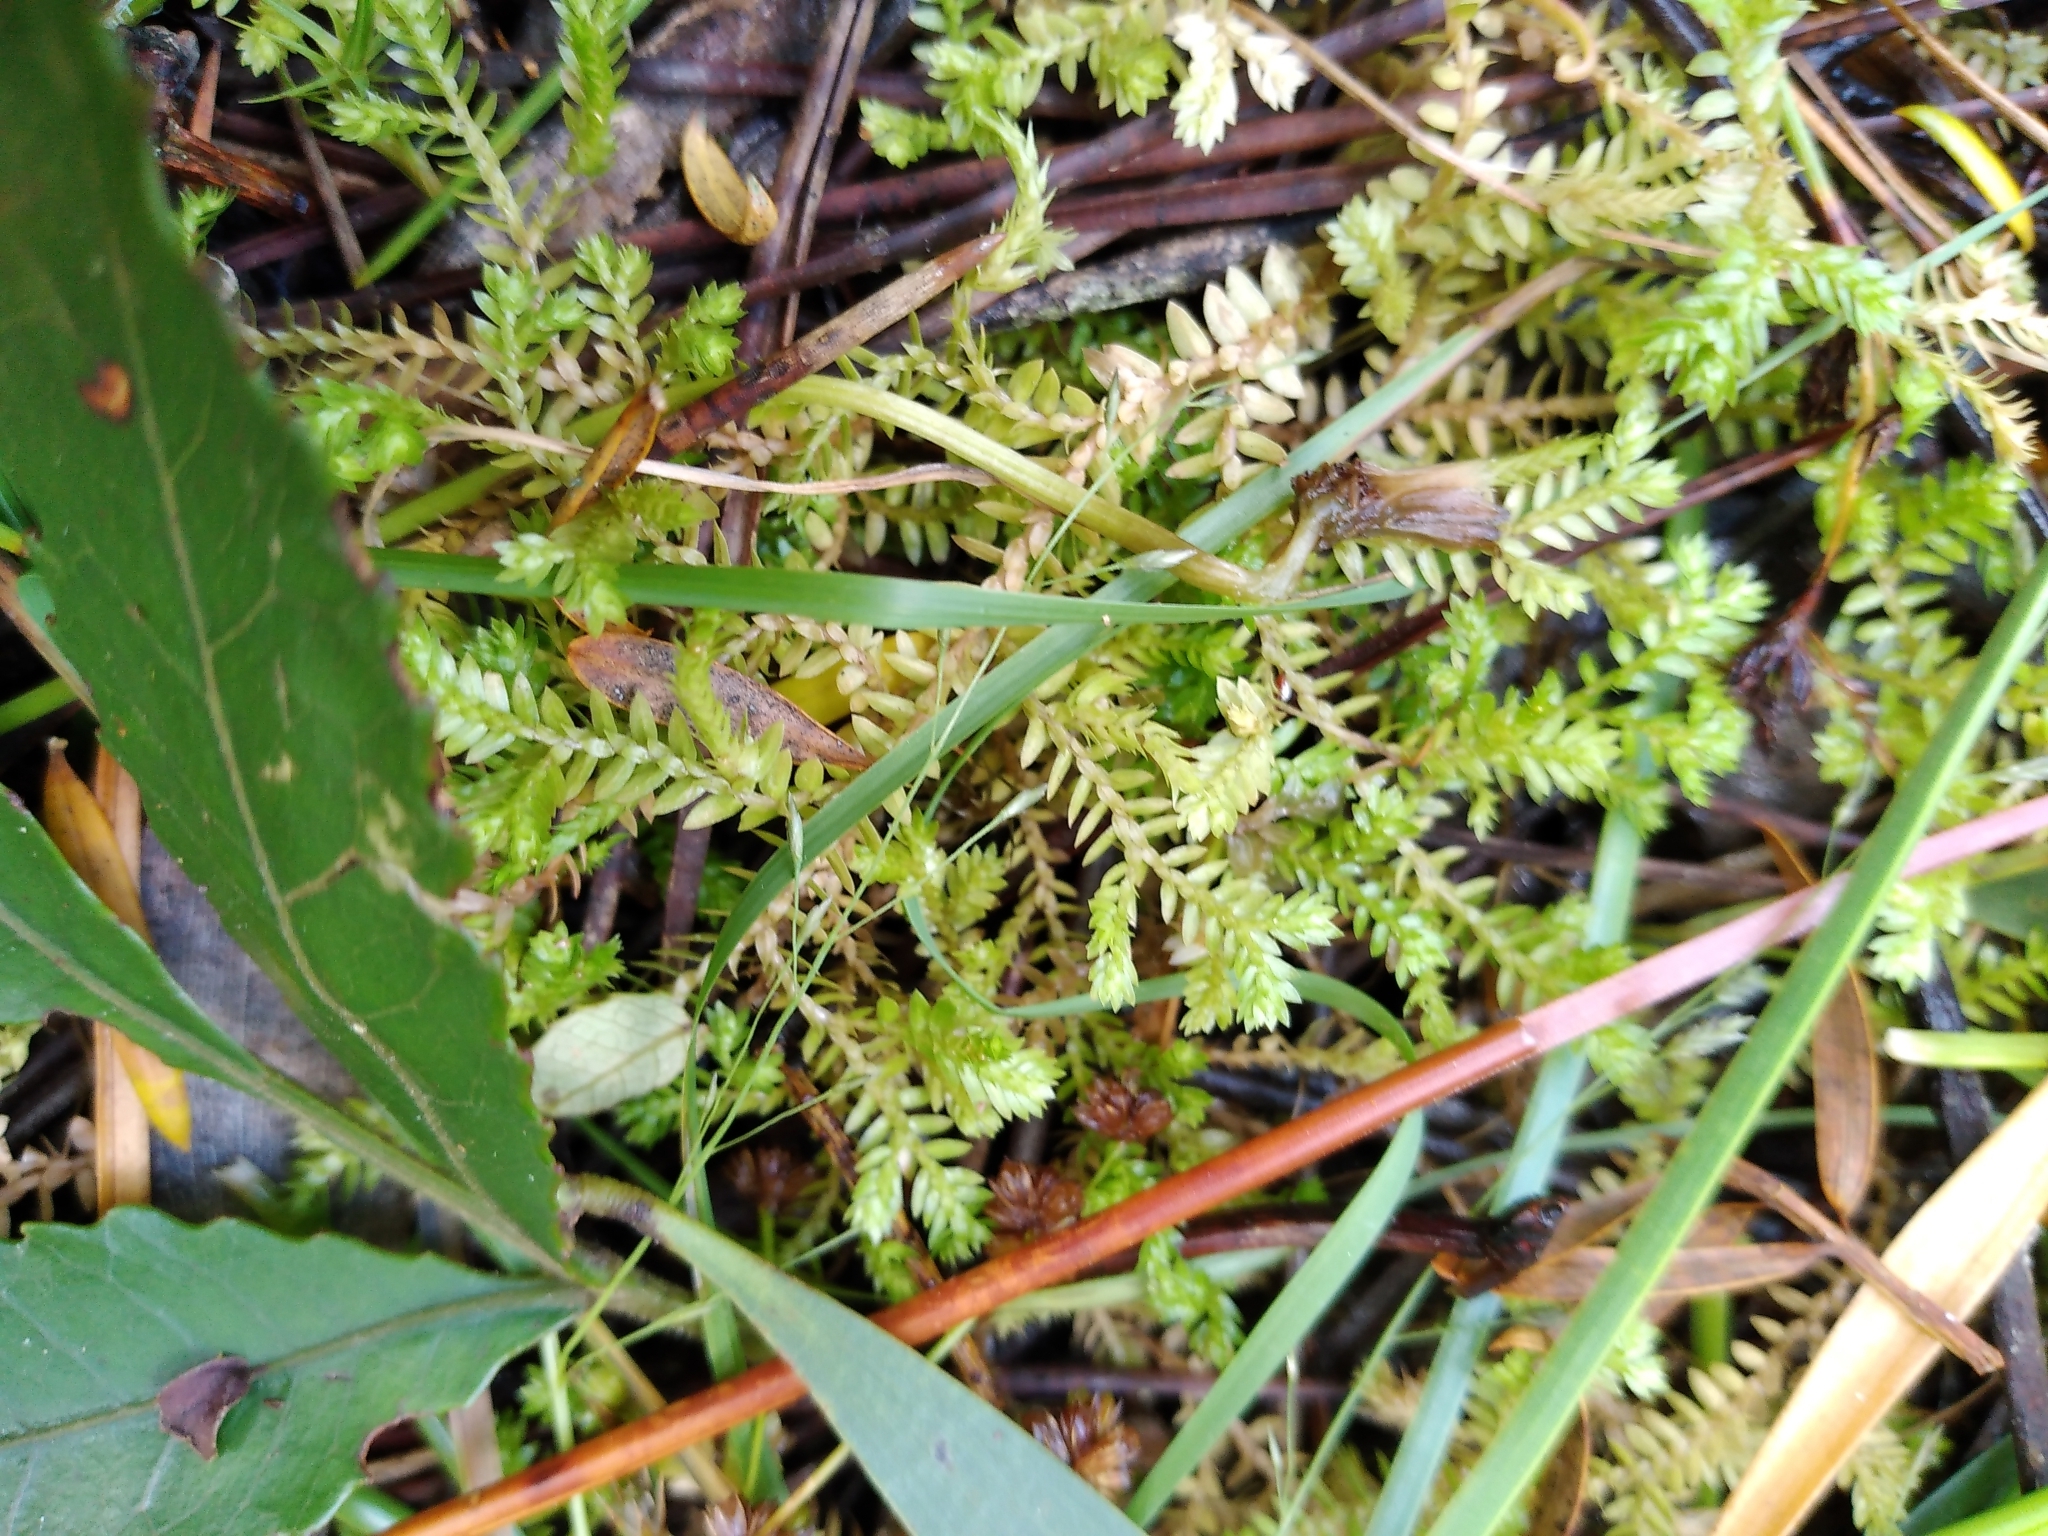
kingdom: Plantae
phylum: Tracheophyta
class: Lycopodiopsida
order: Selaginellales
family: Selaginellaceae
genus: Selaginella
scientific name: Selaginella kraussiana
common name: Krauss' spikemoss
